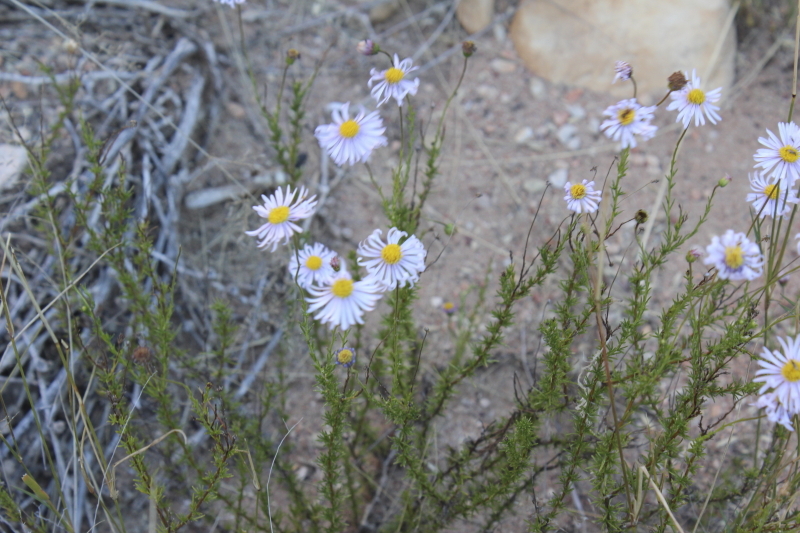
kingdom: Plantae
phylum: Tracheophyta
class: Magnoliopsida
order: Asterales
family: Asteraceae
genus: Felicia
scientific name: Felicia muricata
